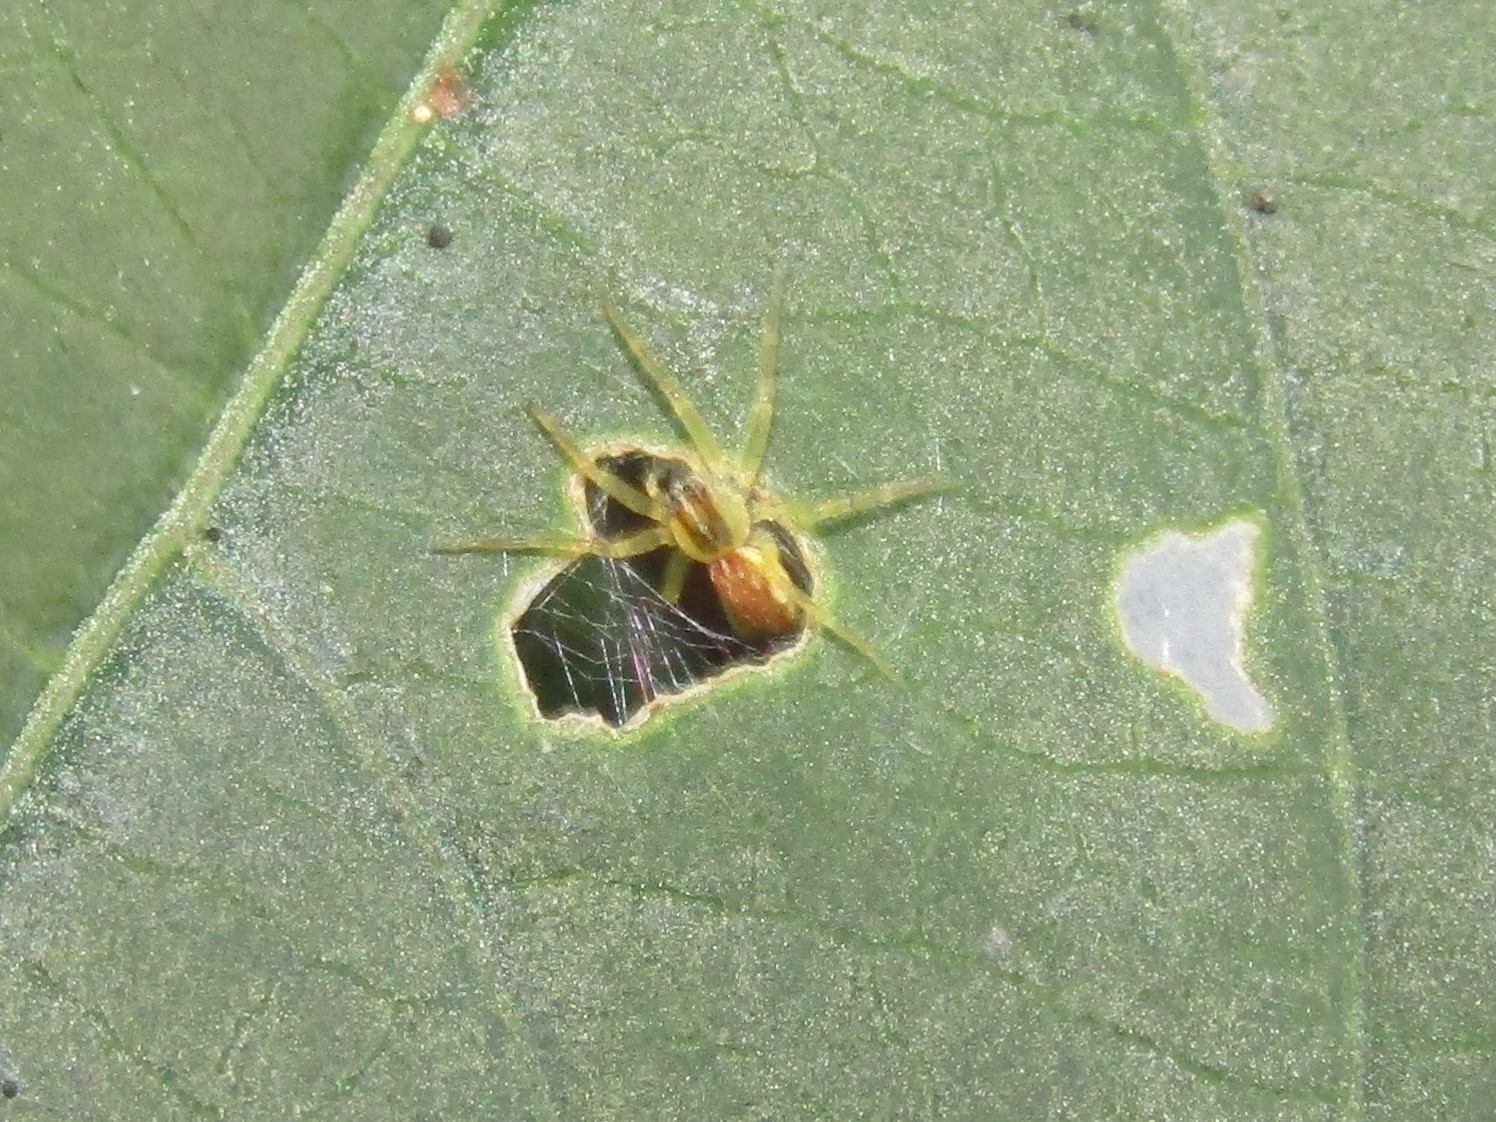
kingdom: Animalia
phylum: Arthropoda
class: Arachnida
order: Araneae
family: Pisauridae
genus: Pisaurina
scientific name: Pisaurina mira
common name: American nursery web spider
